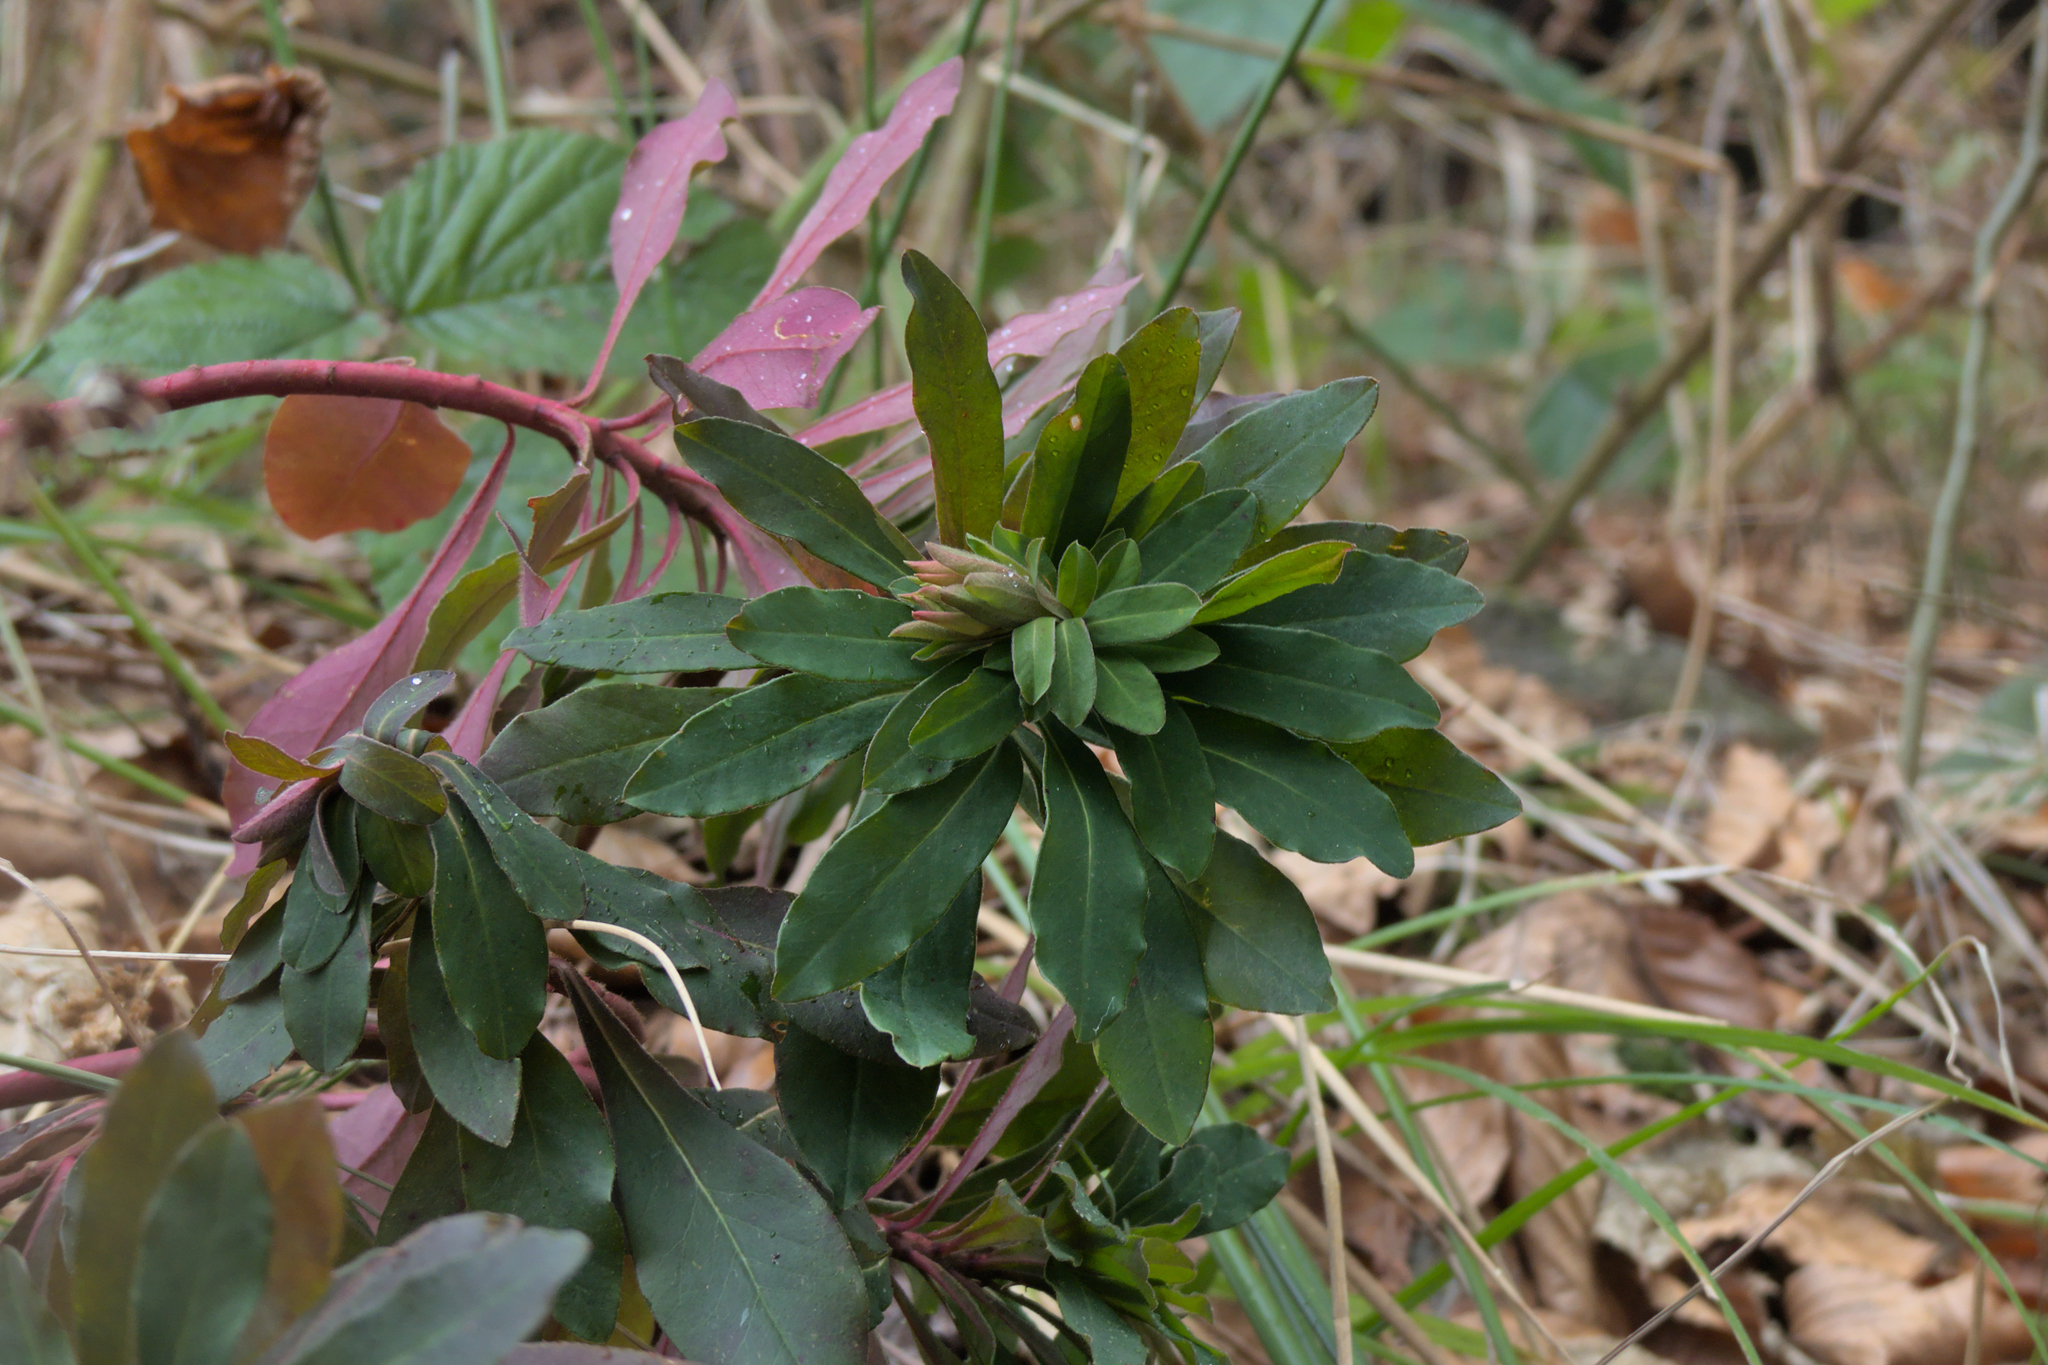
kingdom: Plantae
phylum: Tracheophyta
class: Magnoliopsida
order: Malpighiales
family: Euphorbiaceae
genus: Euphorbia
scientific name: Euphorbia amygdaloides
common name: Wood spurge
